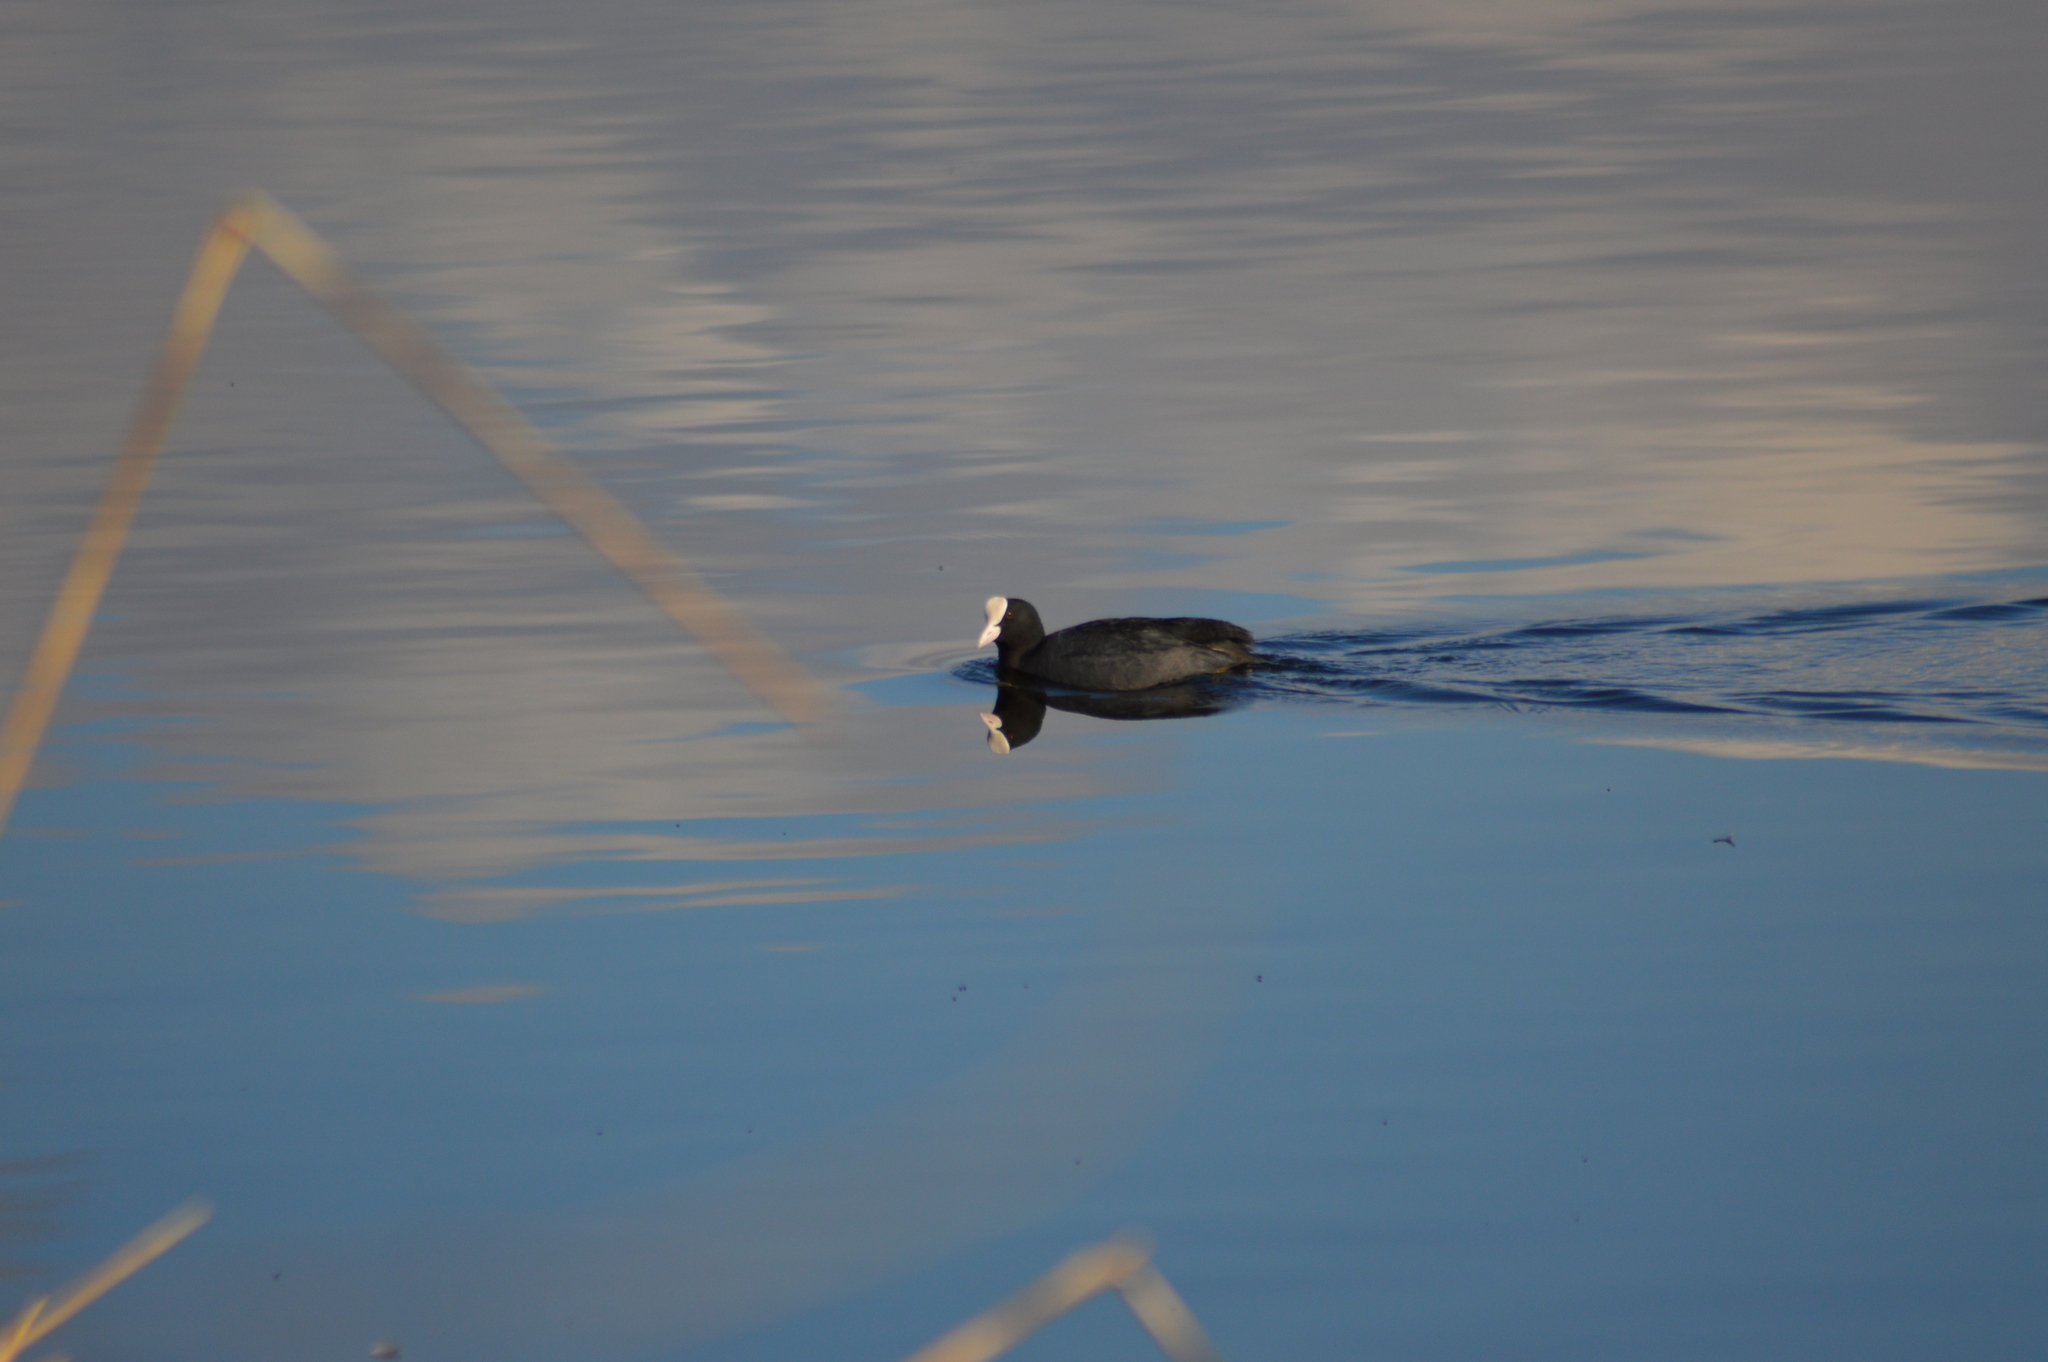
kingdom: Animalia
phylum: Chordata
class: Aves
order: Gruiformes
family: Rallidae
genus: Fulica
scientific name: Fulica atra
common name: Eurasian coot
